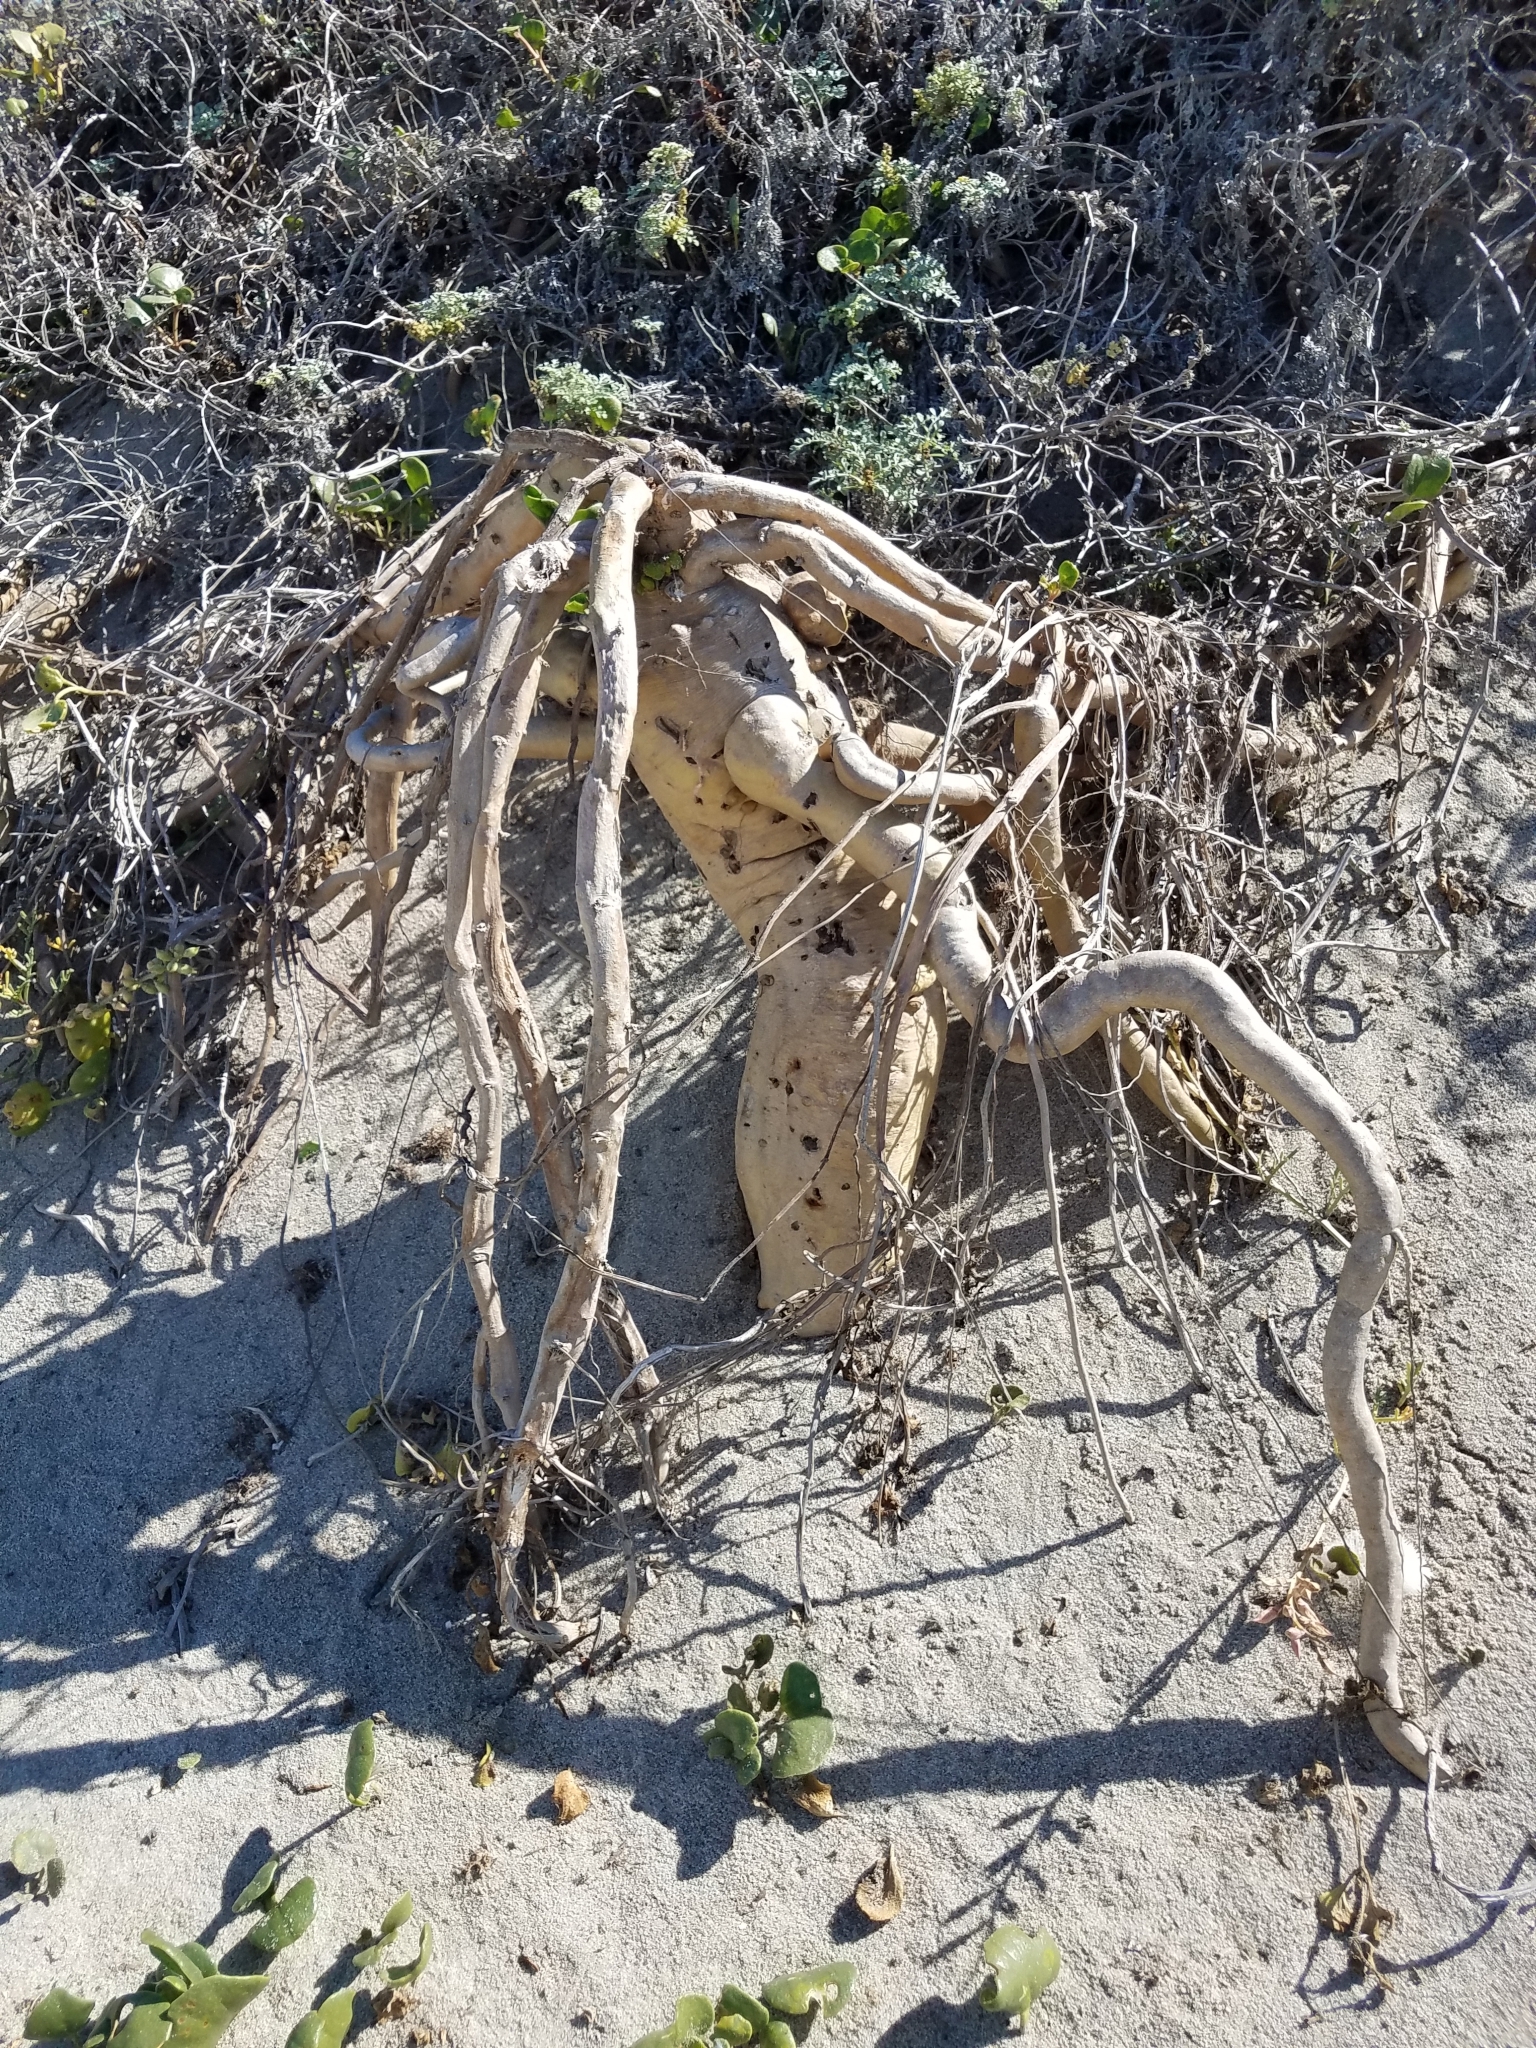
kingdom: Plantae
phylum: Tracheophyta
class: Magnoliopsida
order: Caryophyllales
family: Nyctaginaceae
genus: Abronia
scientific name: Abronia latifolia
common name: Yellow sand-verbena
